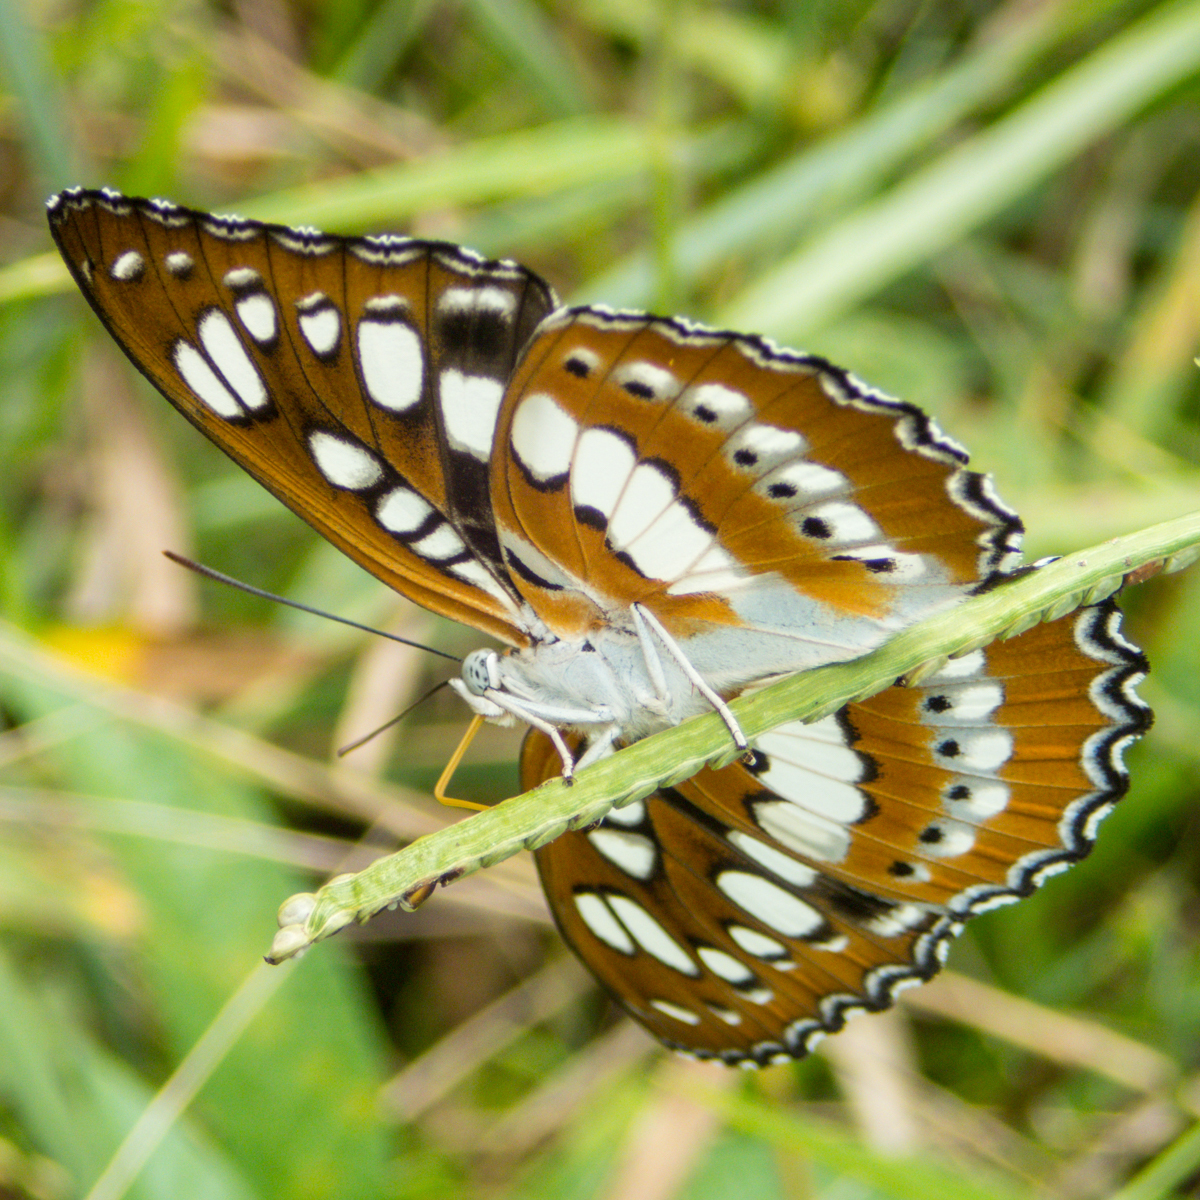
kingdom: Animalia
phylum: Arthropoda
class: Insecta
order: Lepidoptera
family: Nymphalidae
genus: Parathyma
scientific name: Parathyma perius
